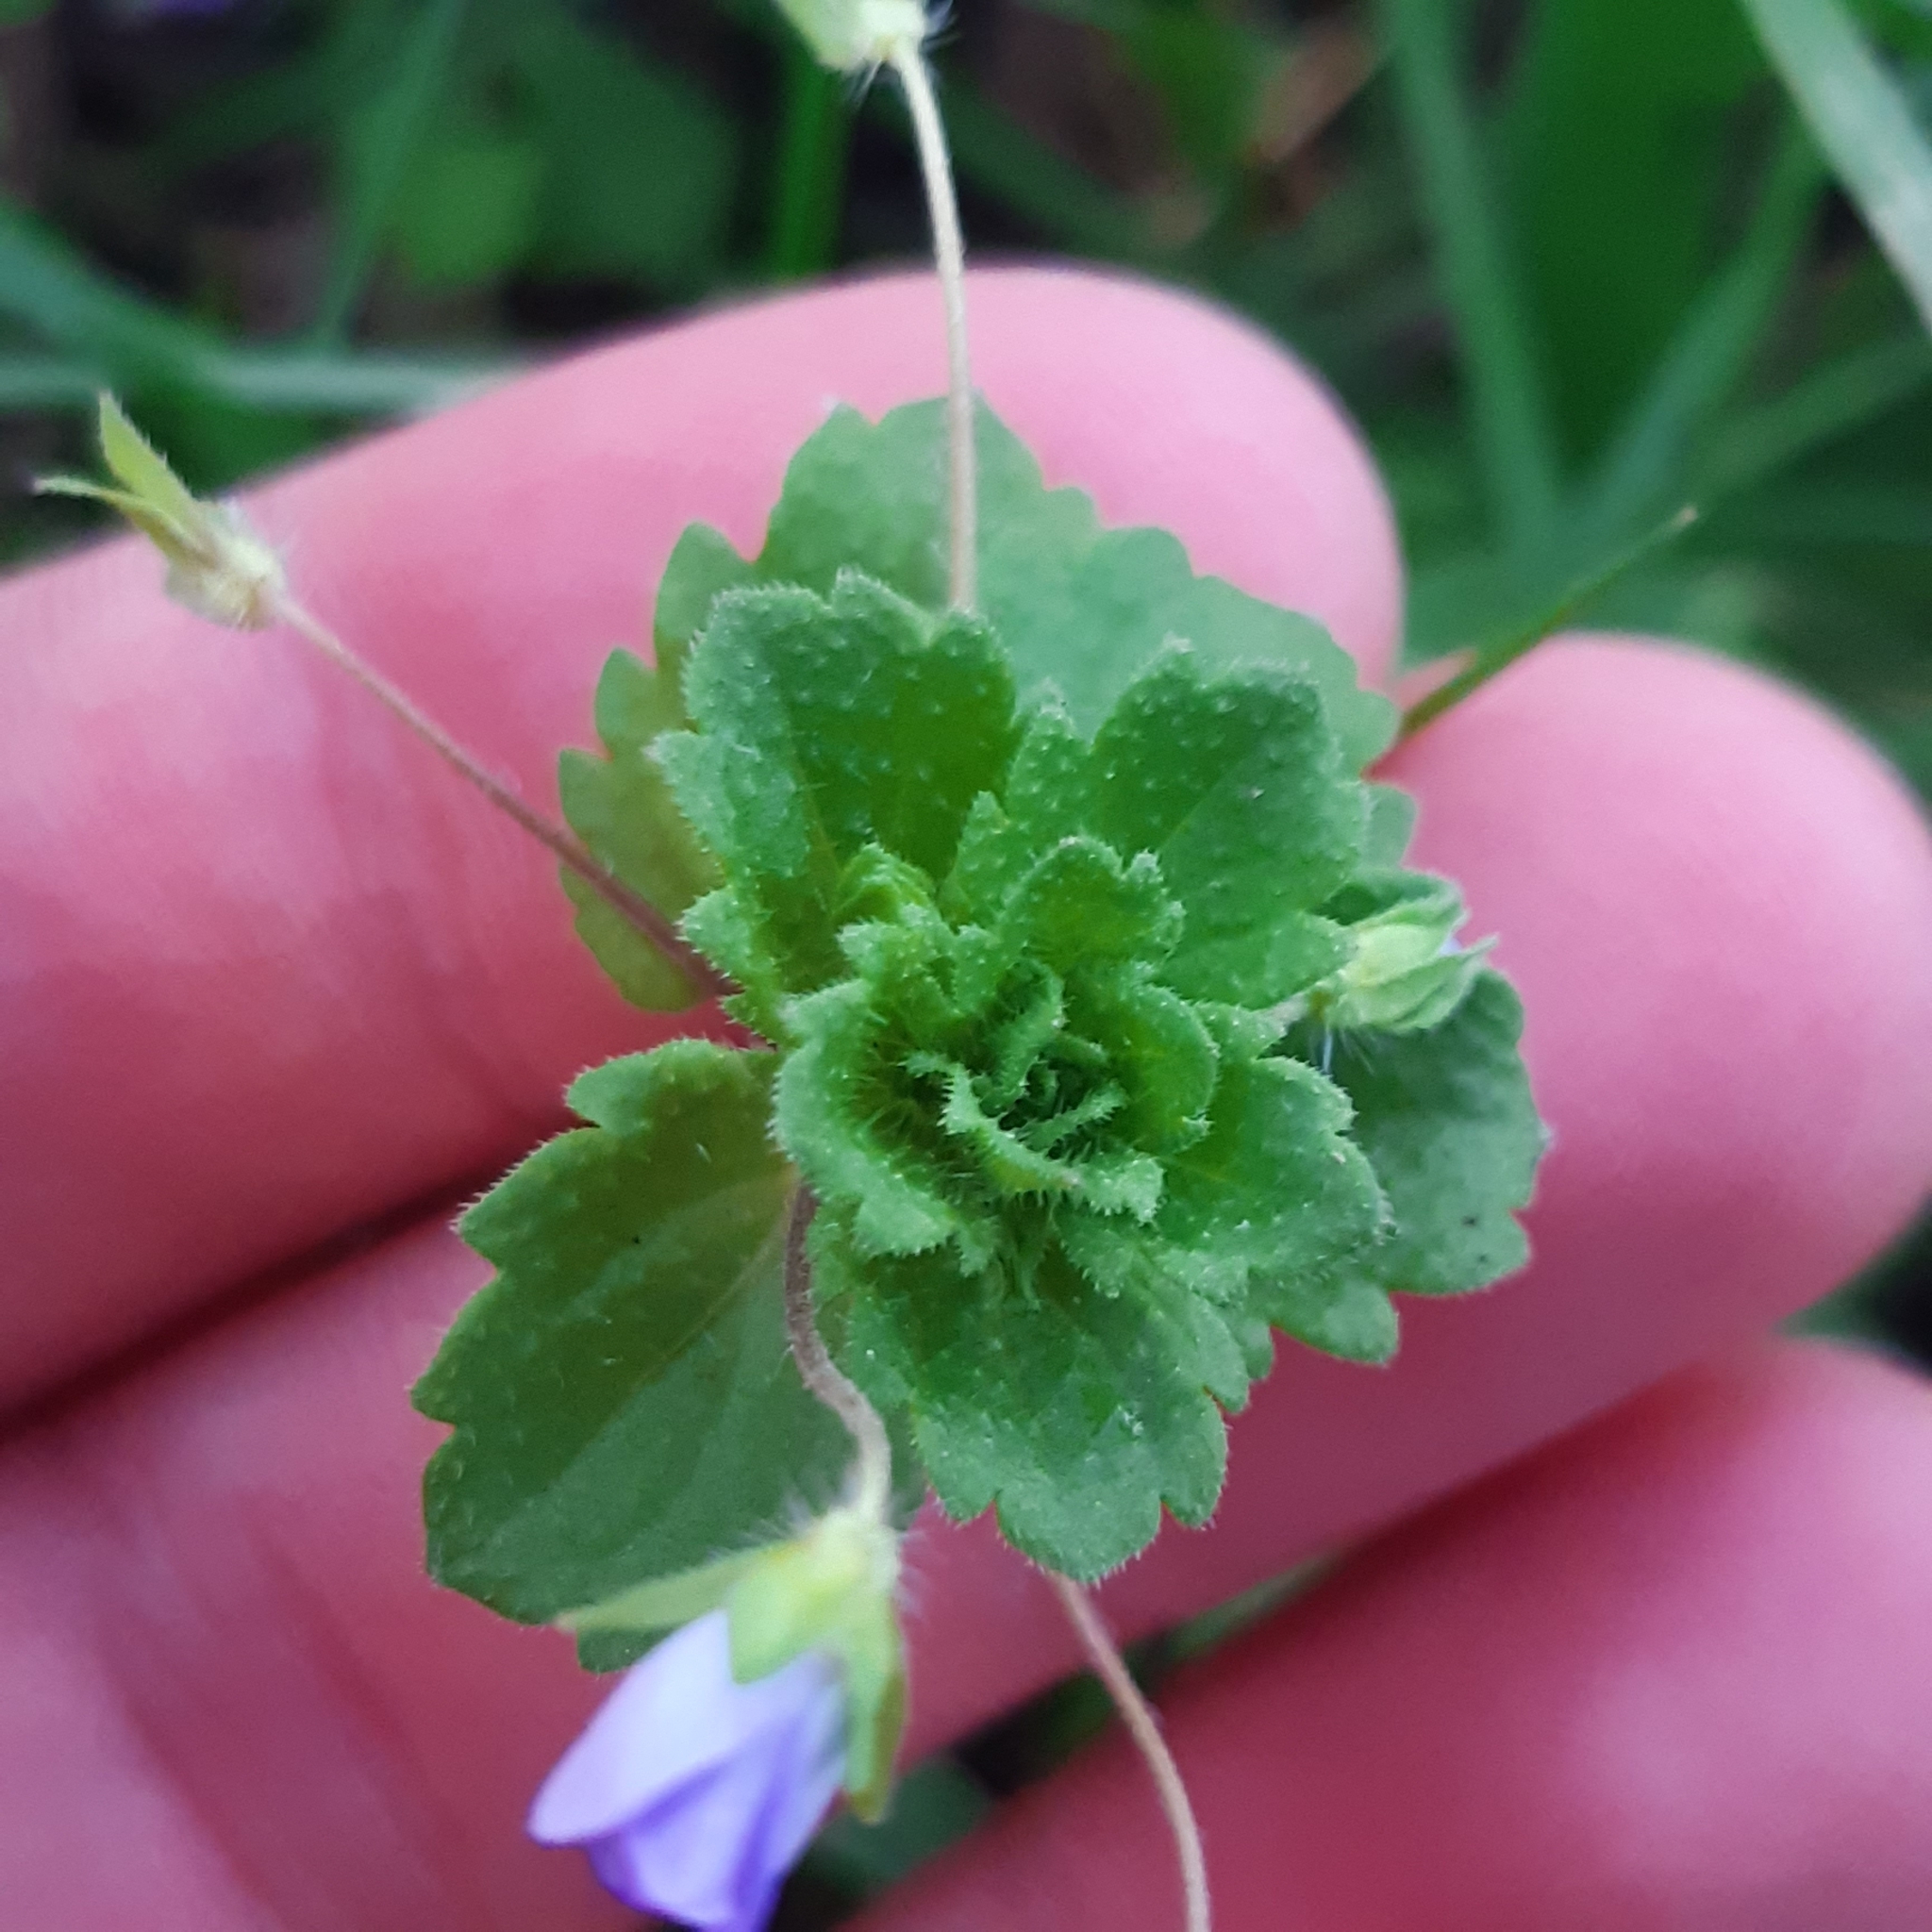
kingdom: Plantae
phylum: Tracheophyta
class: Magnoliopsida
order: Lamiales
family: Plantaginaceae
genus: Veronica
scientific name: Veronica persica
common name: Common field-speedwell
